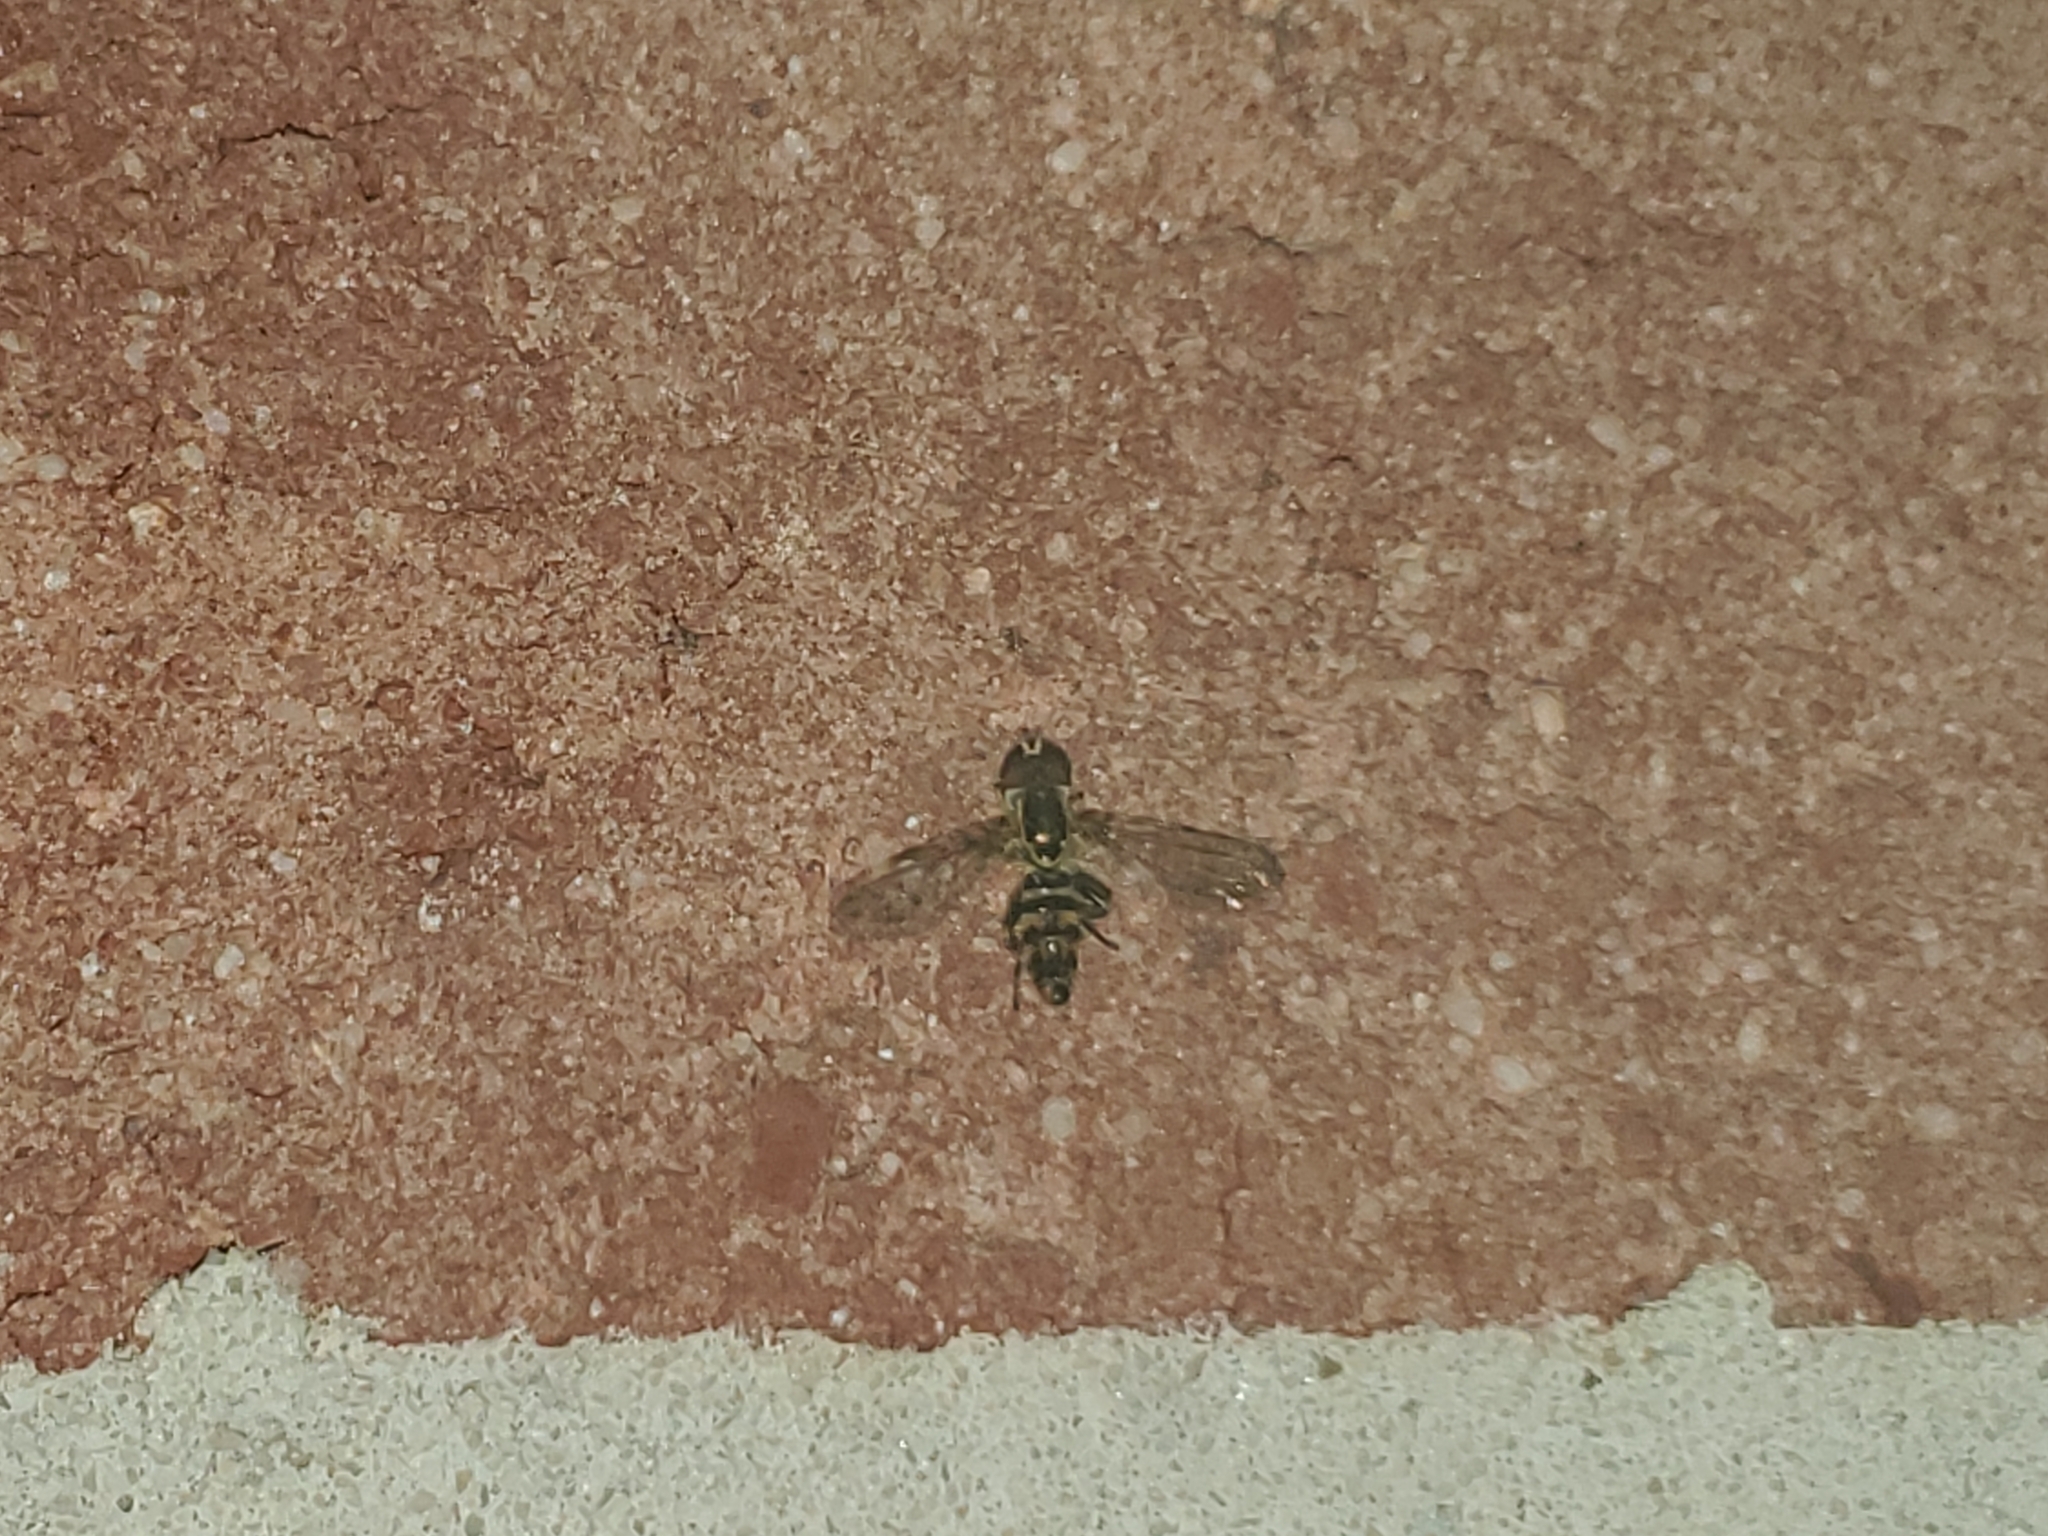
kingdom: Animalia
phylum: Arthropoda
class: Insecta
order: Diptera
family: Syrphidae
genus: Toxomerus
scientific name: Toxomerus geminatus
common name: Eastern calligrapher
